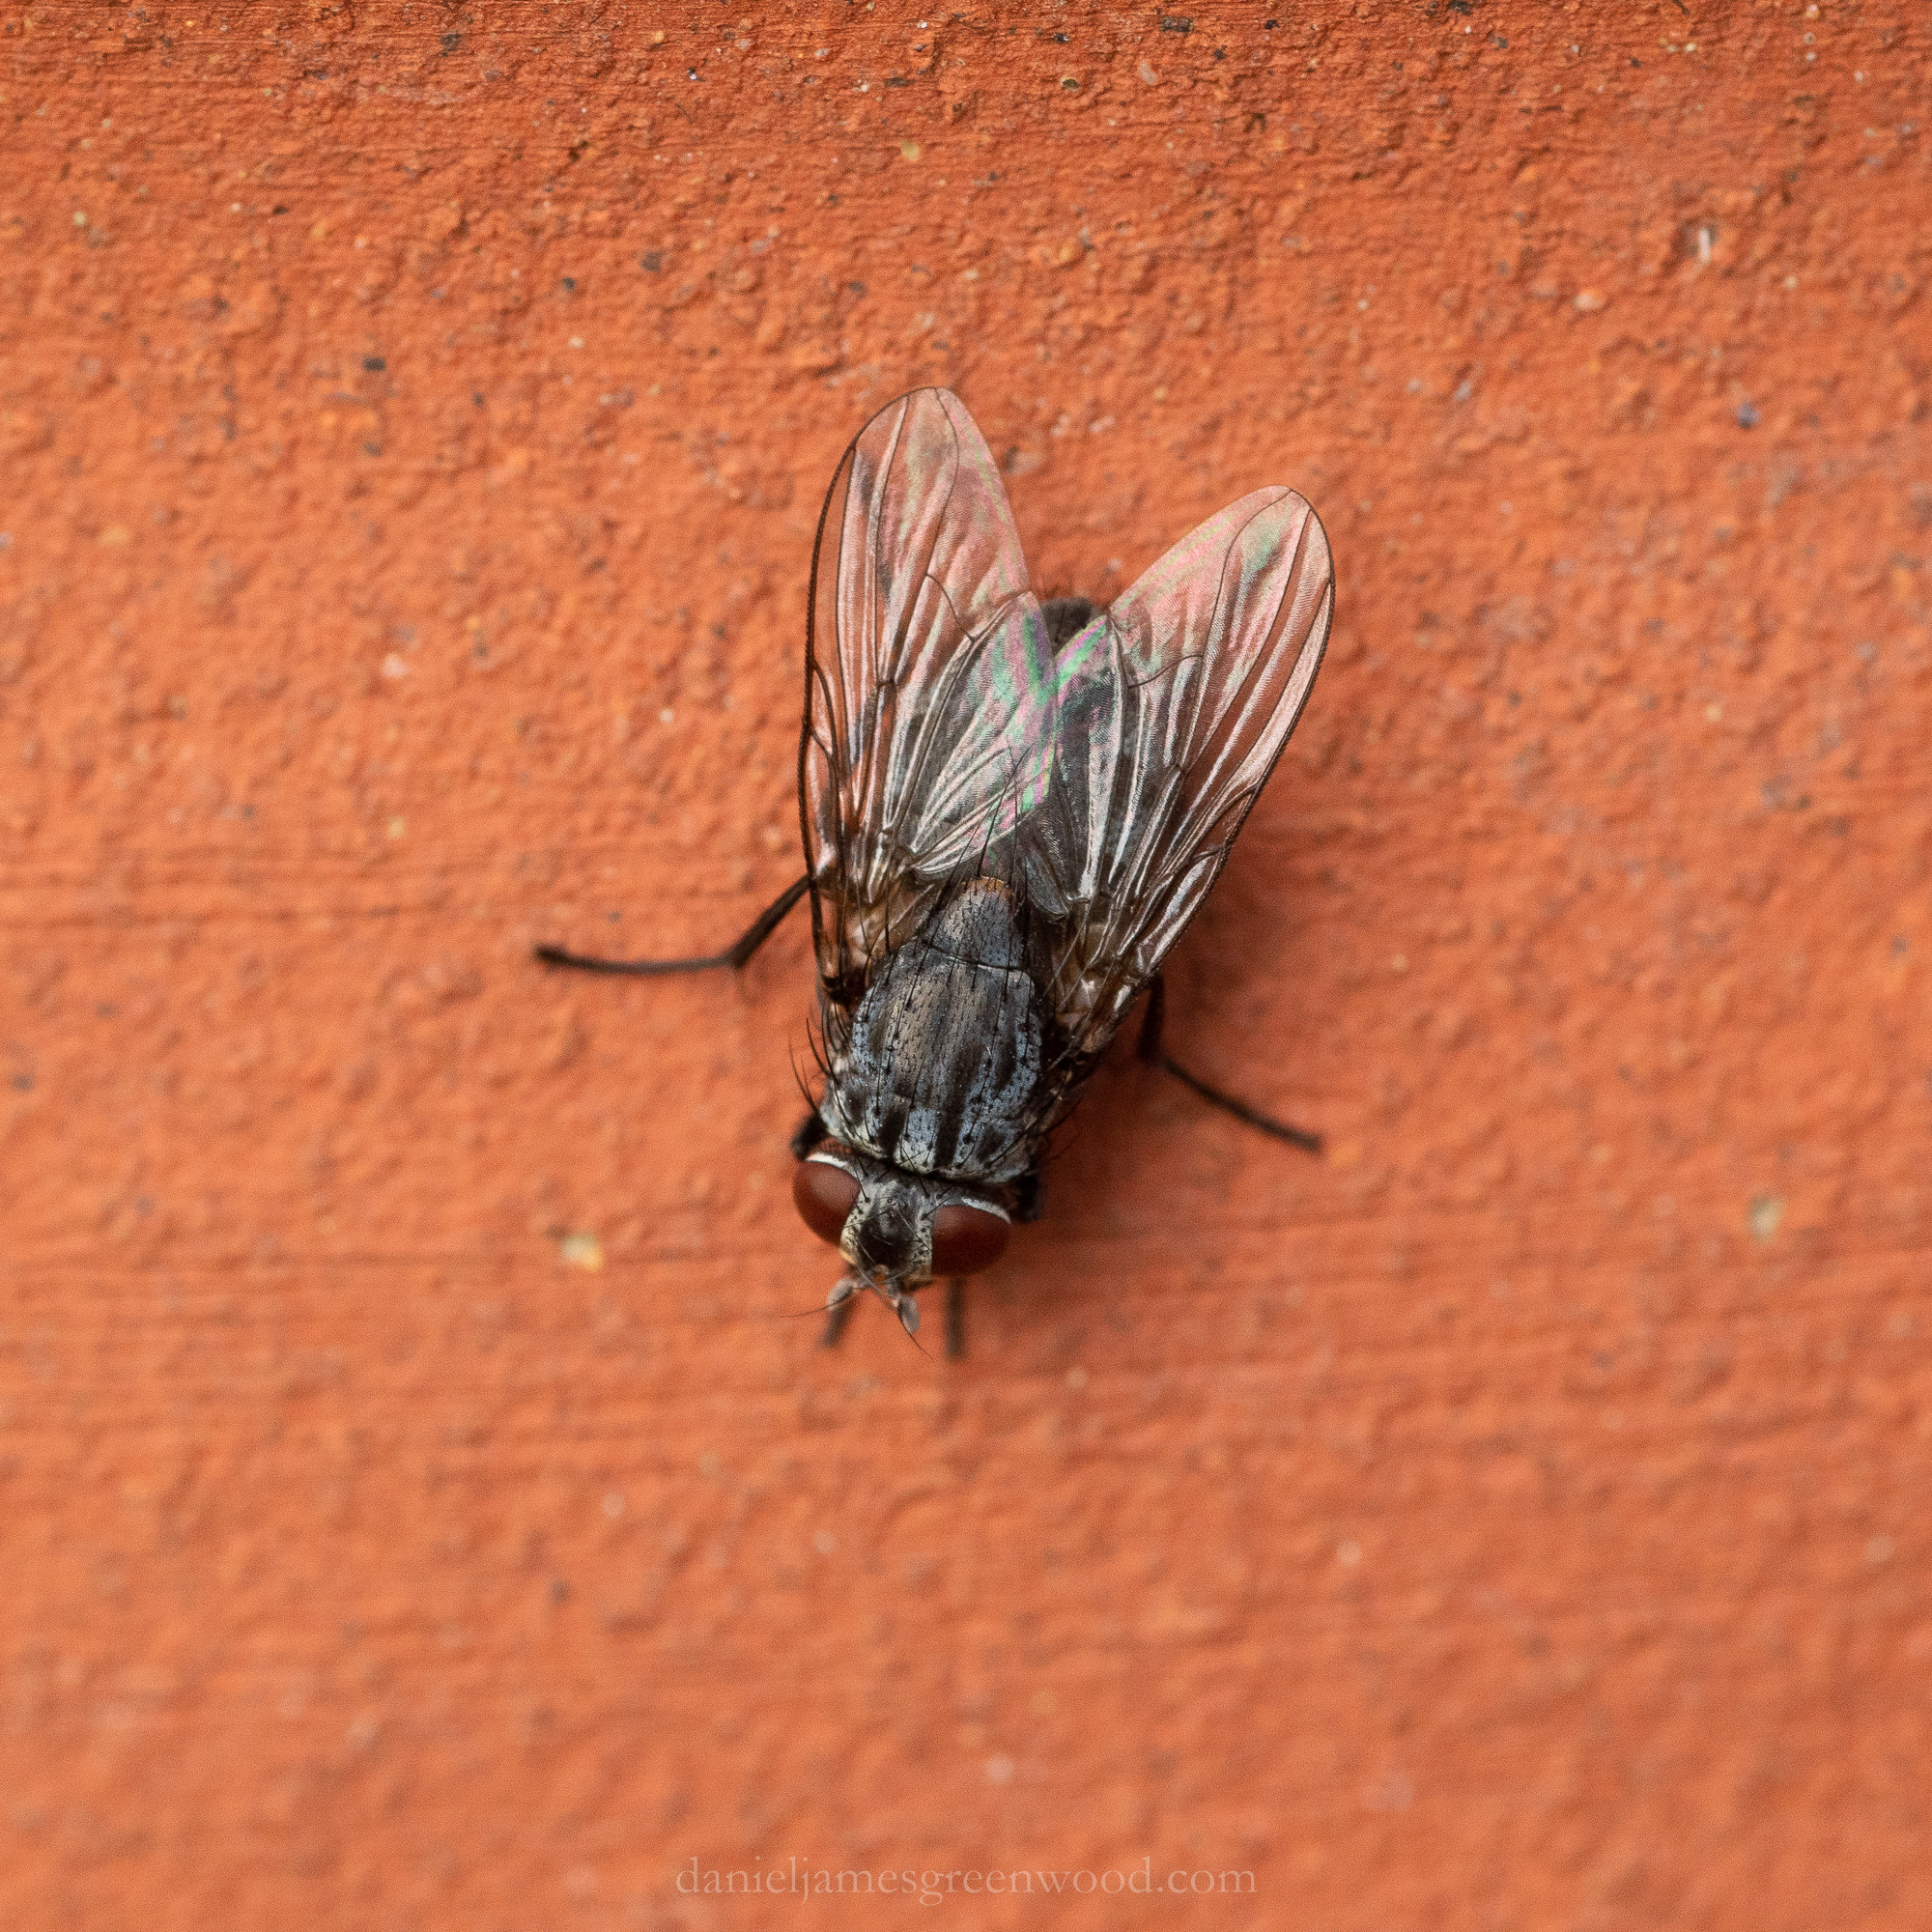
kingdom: Animalia
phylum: Arthropoda
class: Insecta
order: Diptera
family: Muscidae
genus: Muscina
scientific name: Muscina prolapsa
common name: Muscoid fly
